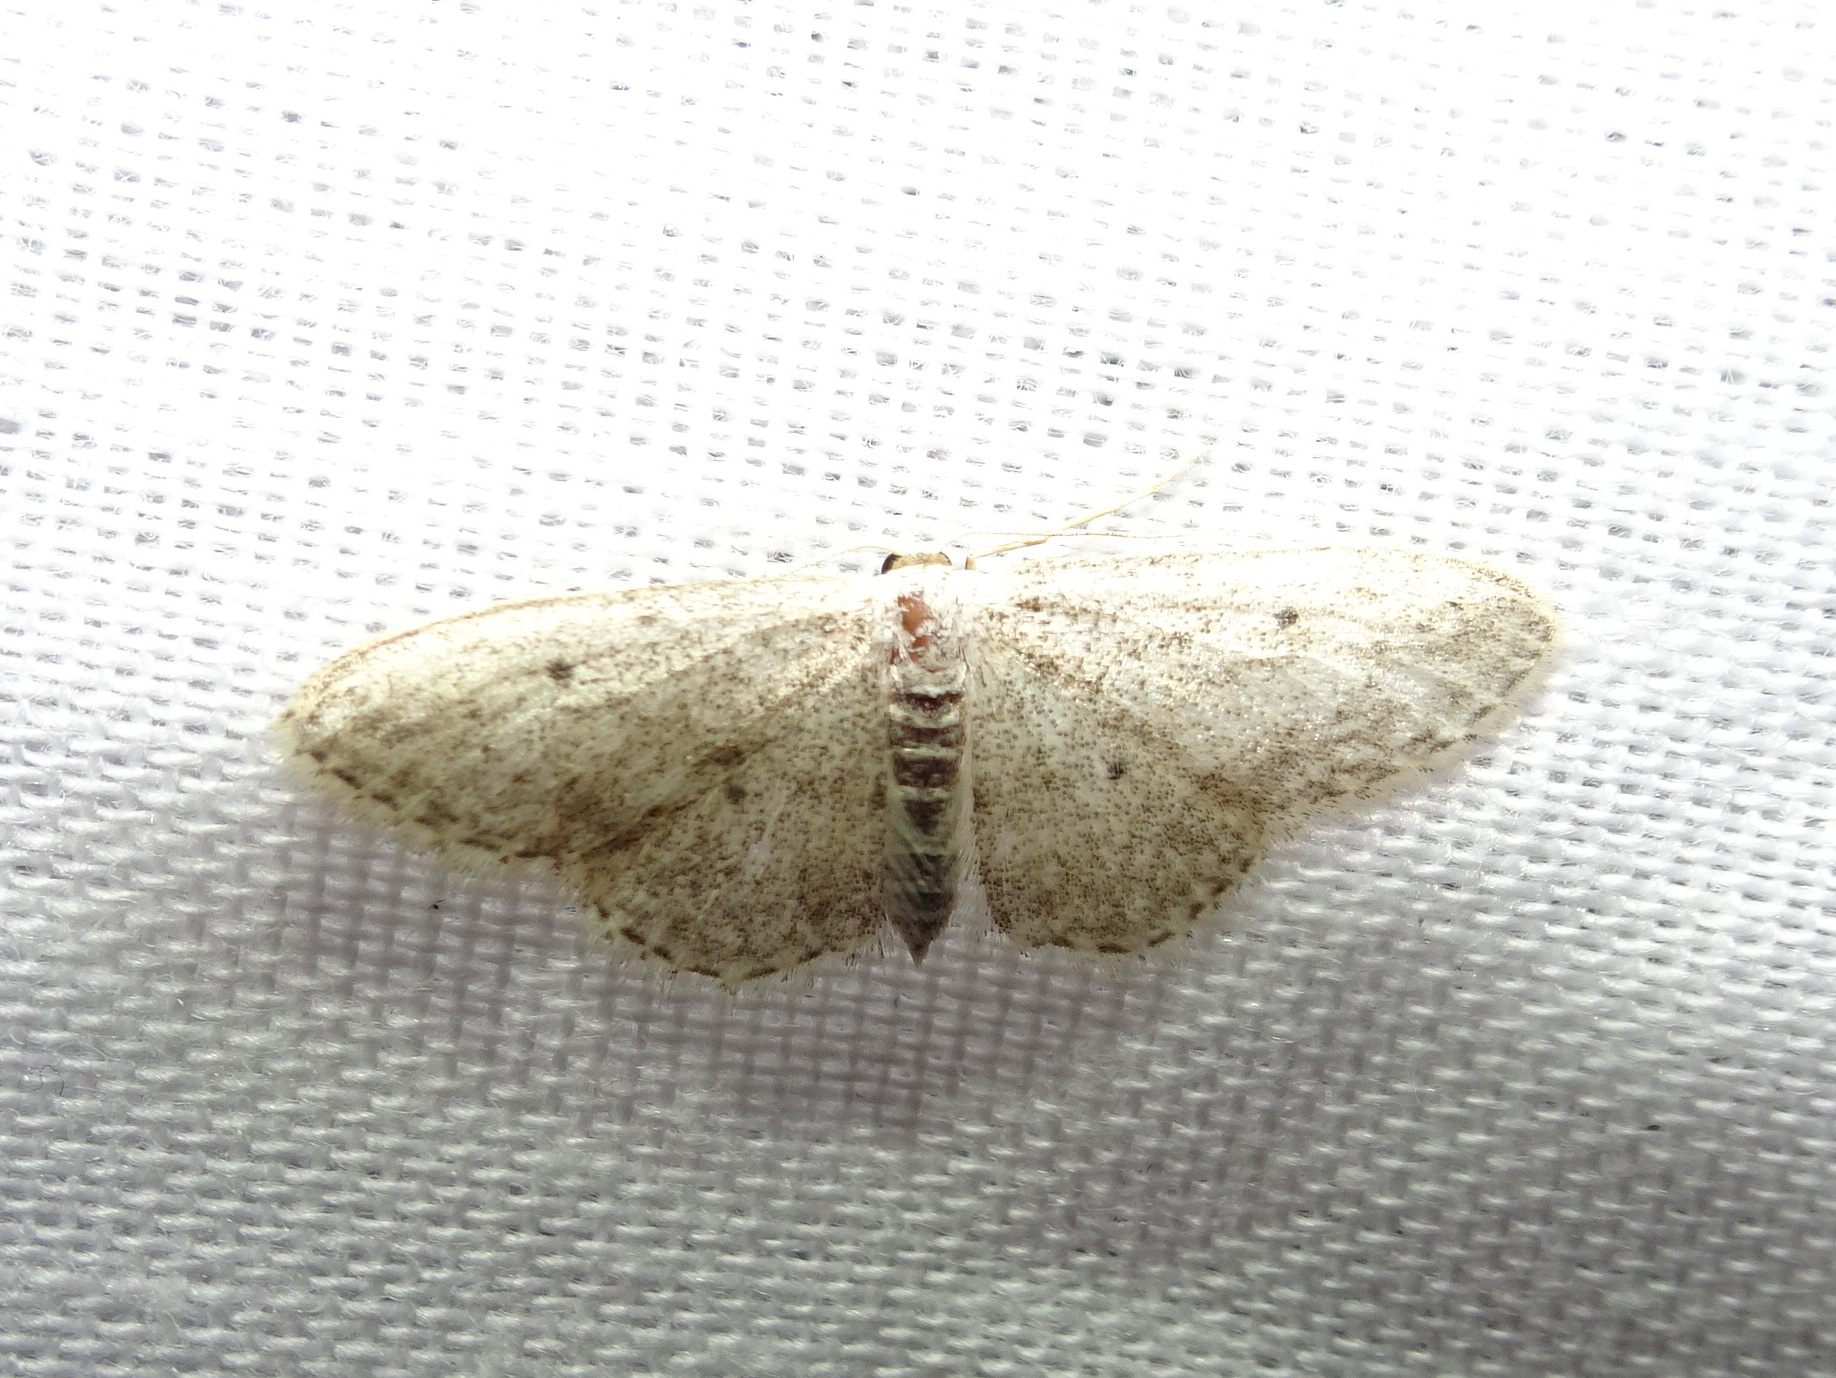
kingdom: Animalia
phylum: Arthropoda
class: Insecta
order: Lepidoptera
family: Geometridae
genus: Idaea
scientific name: Idaea seriata
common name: Small dusty wave
